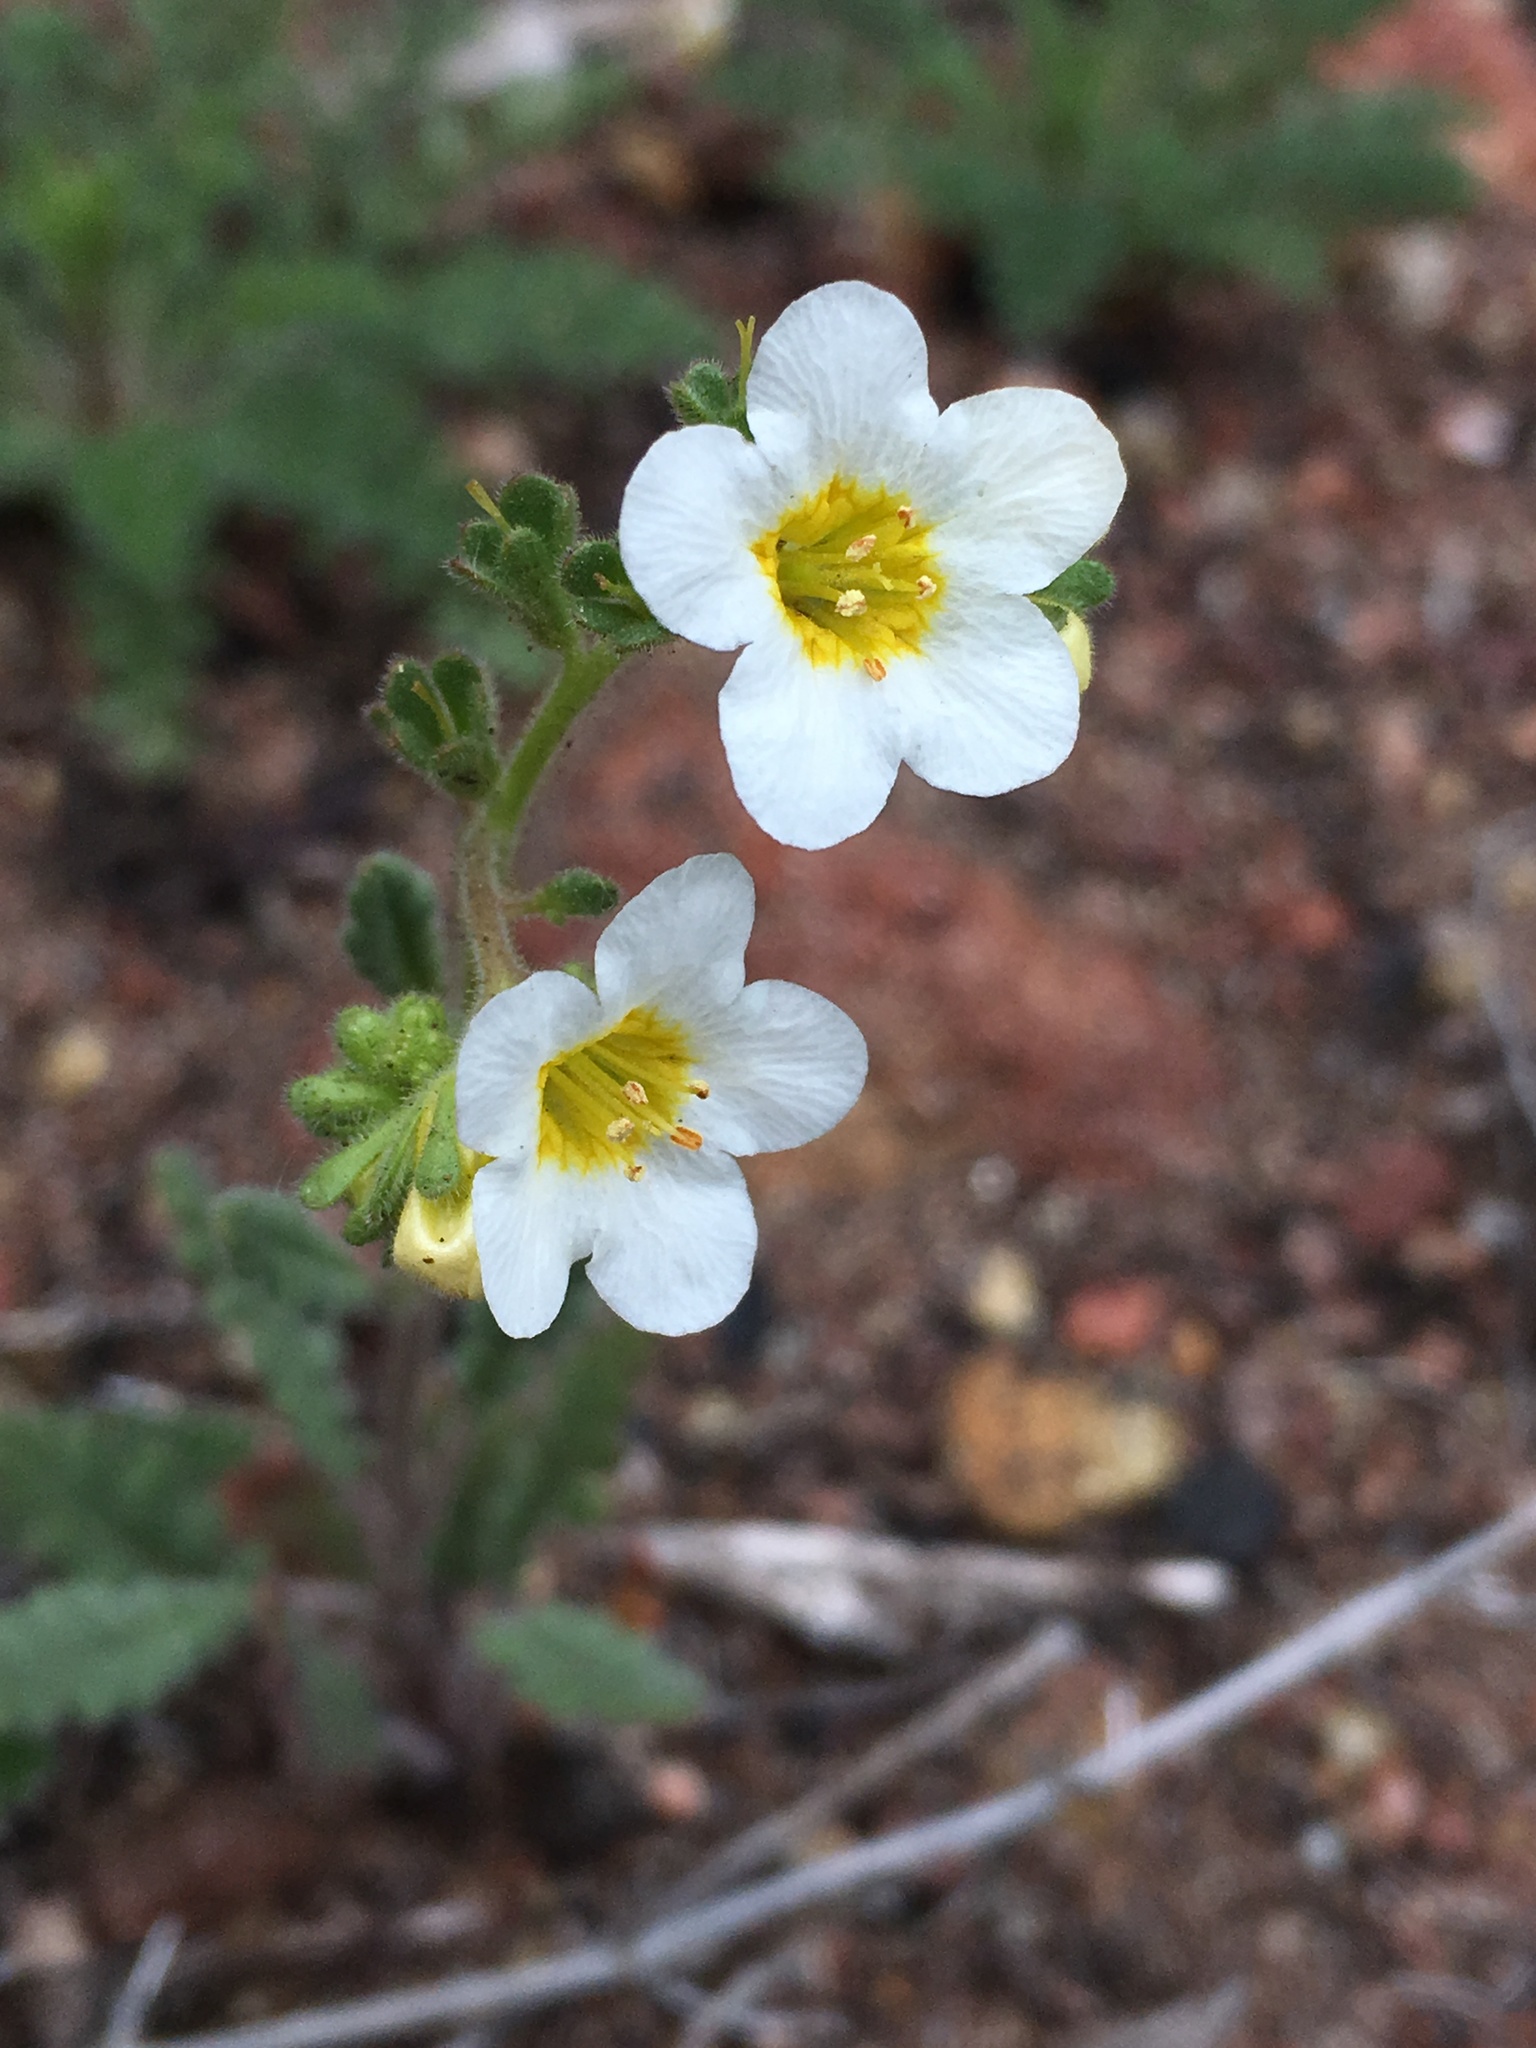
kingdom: Plantae
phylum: Tracheophyta
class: Magnoliopsida
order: Boraginales
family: Hydrophyllaceae
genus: Phacelia
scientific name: Phacelia brachyloba
